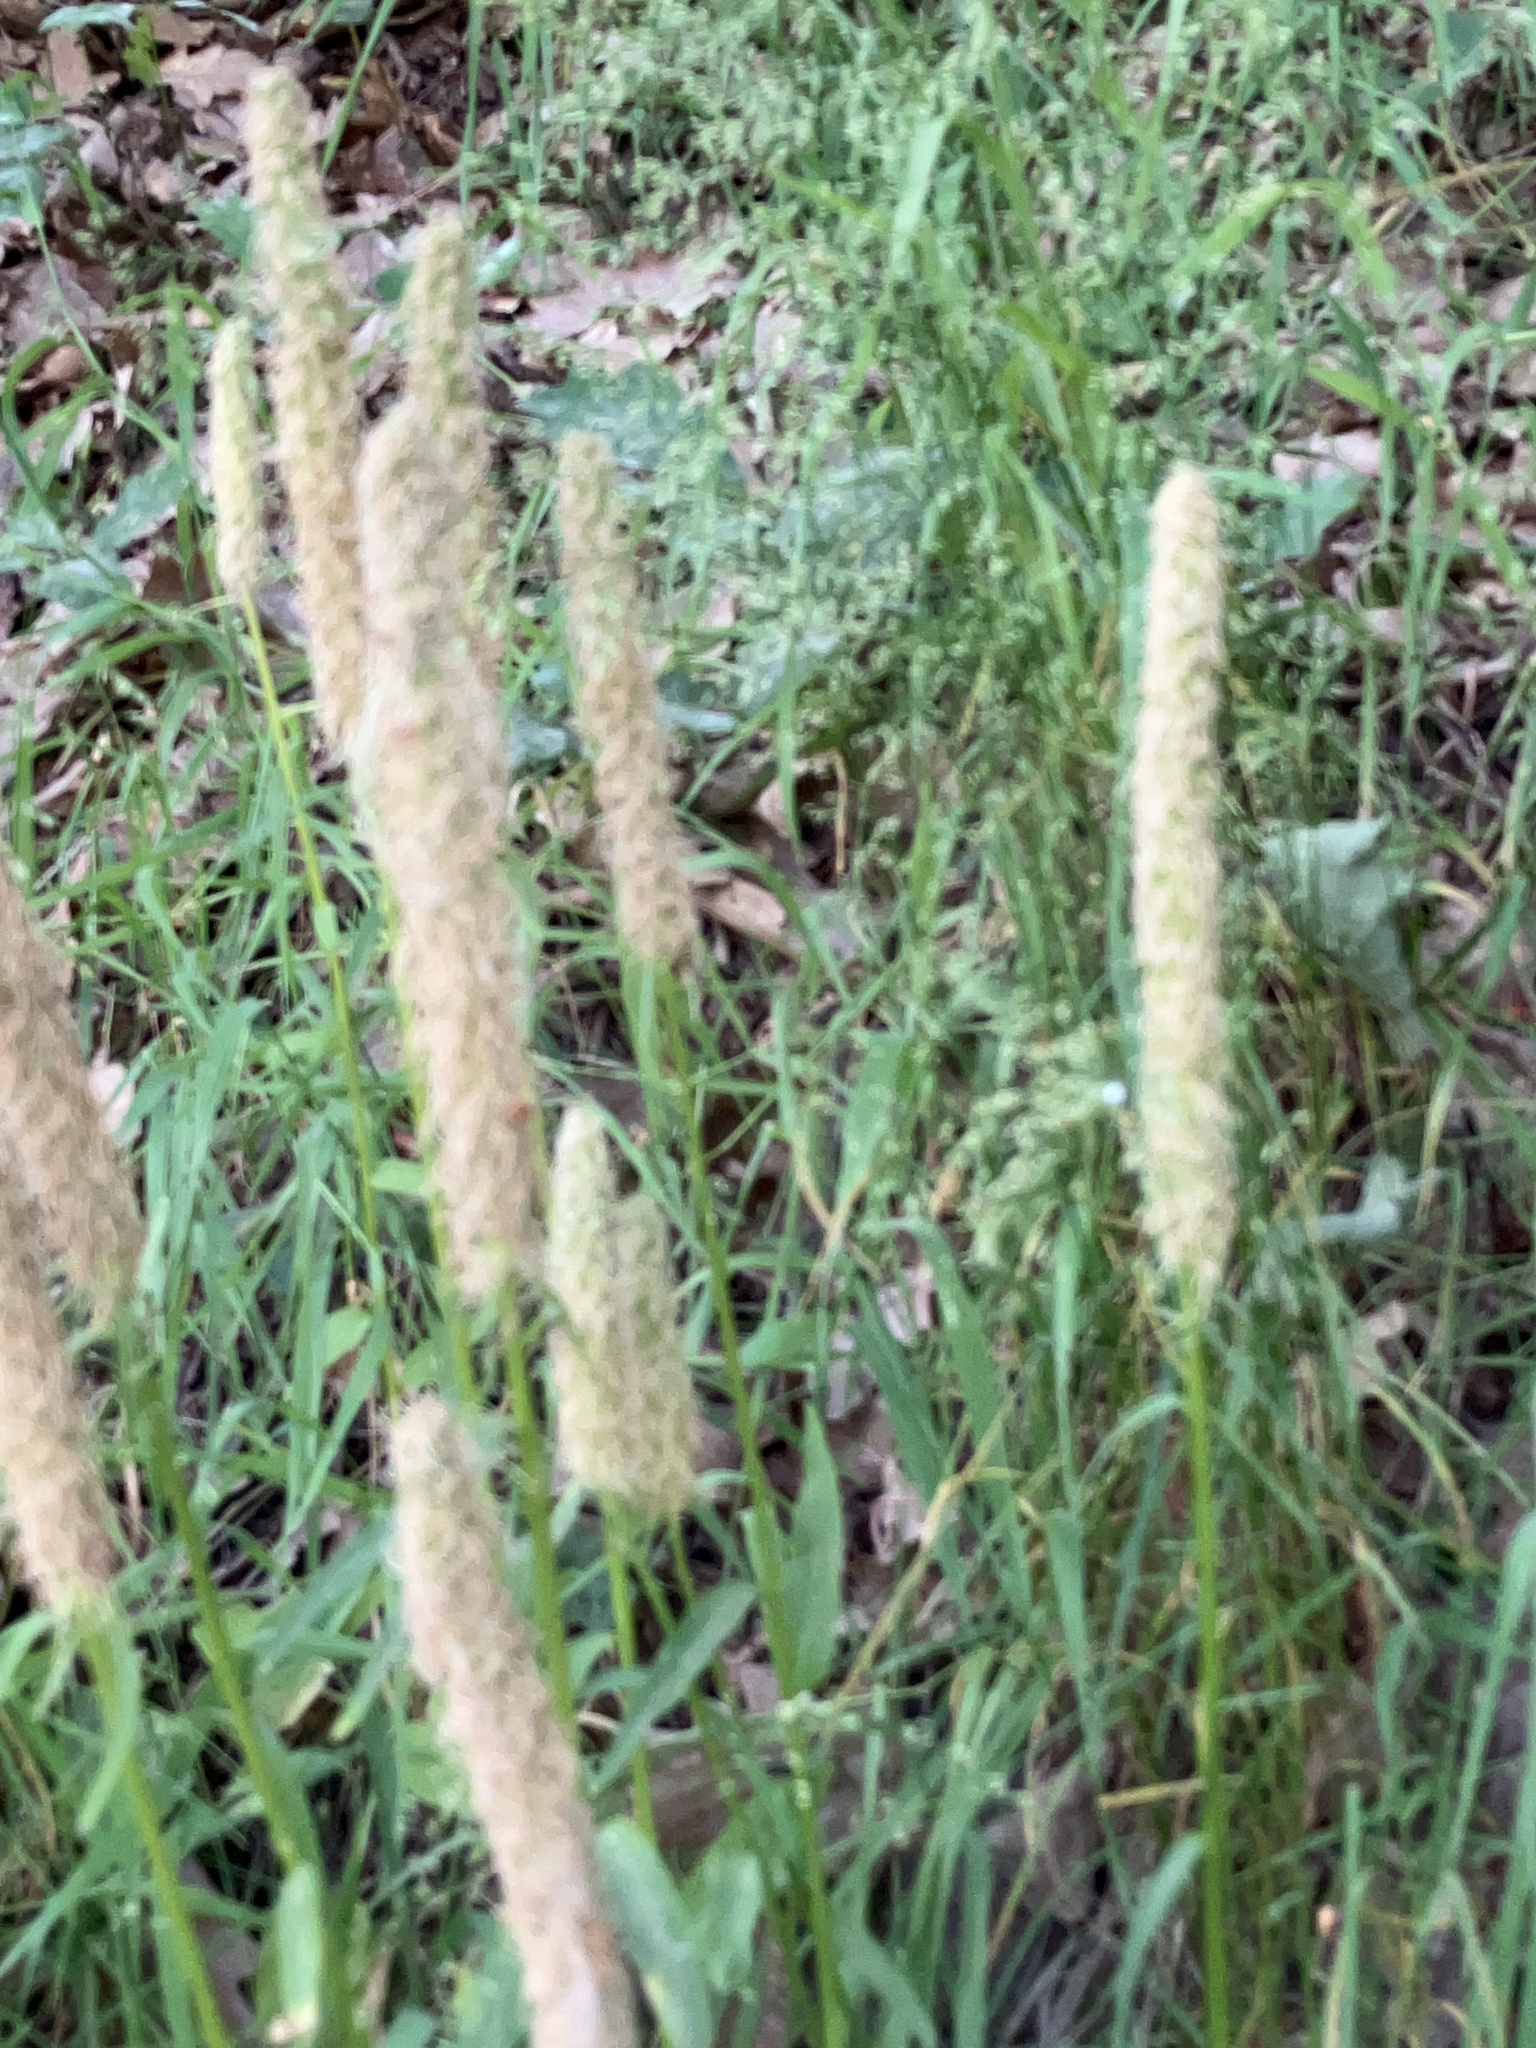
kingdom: Plantae
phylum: Tracheophyta
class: Magnoliopsida
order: Asterales
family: Campanulaceae
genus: Phyteuma
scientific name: Phyteuma spicatum
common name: Spiked rampion
